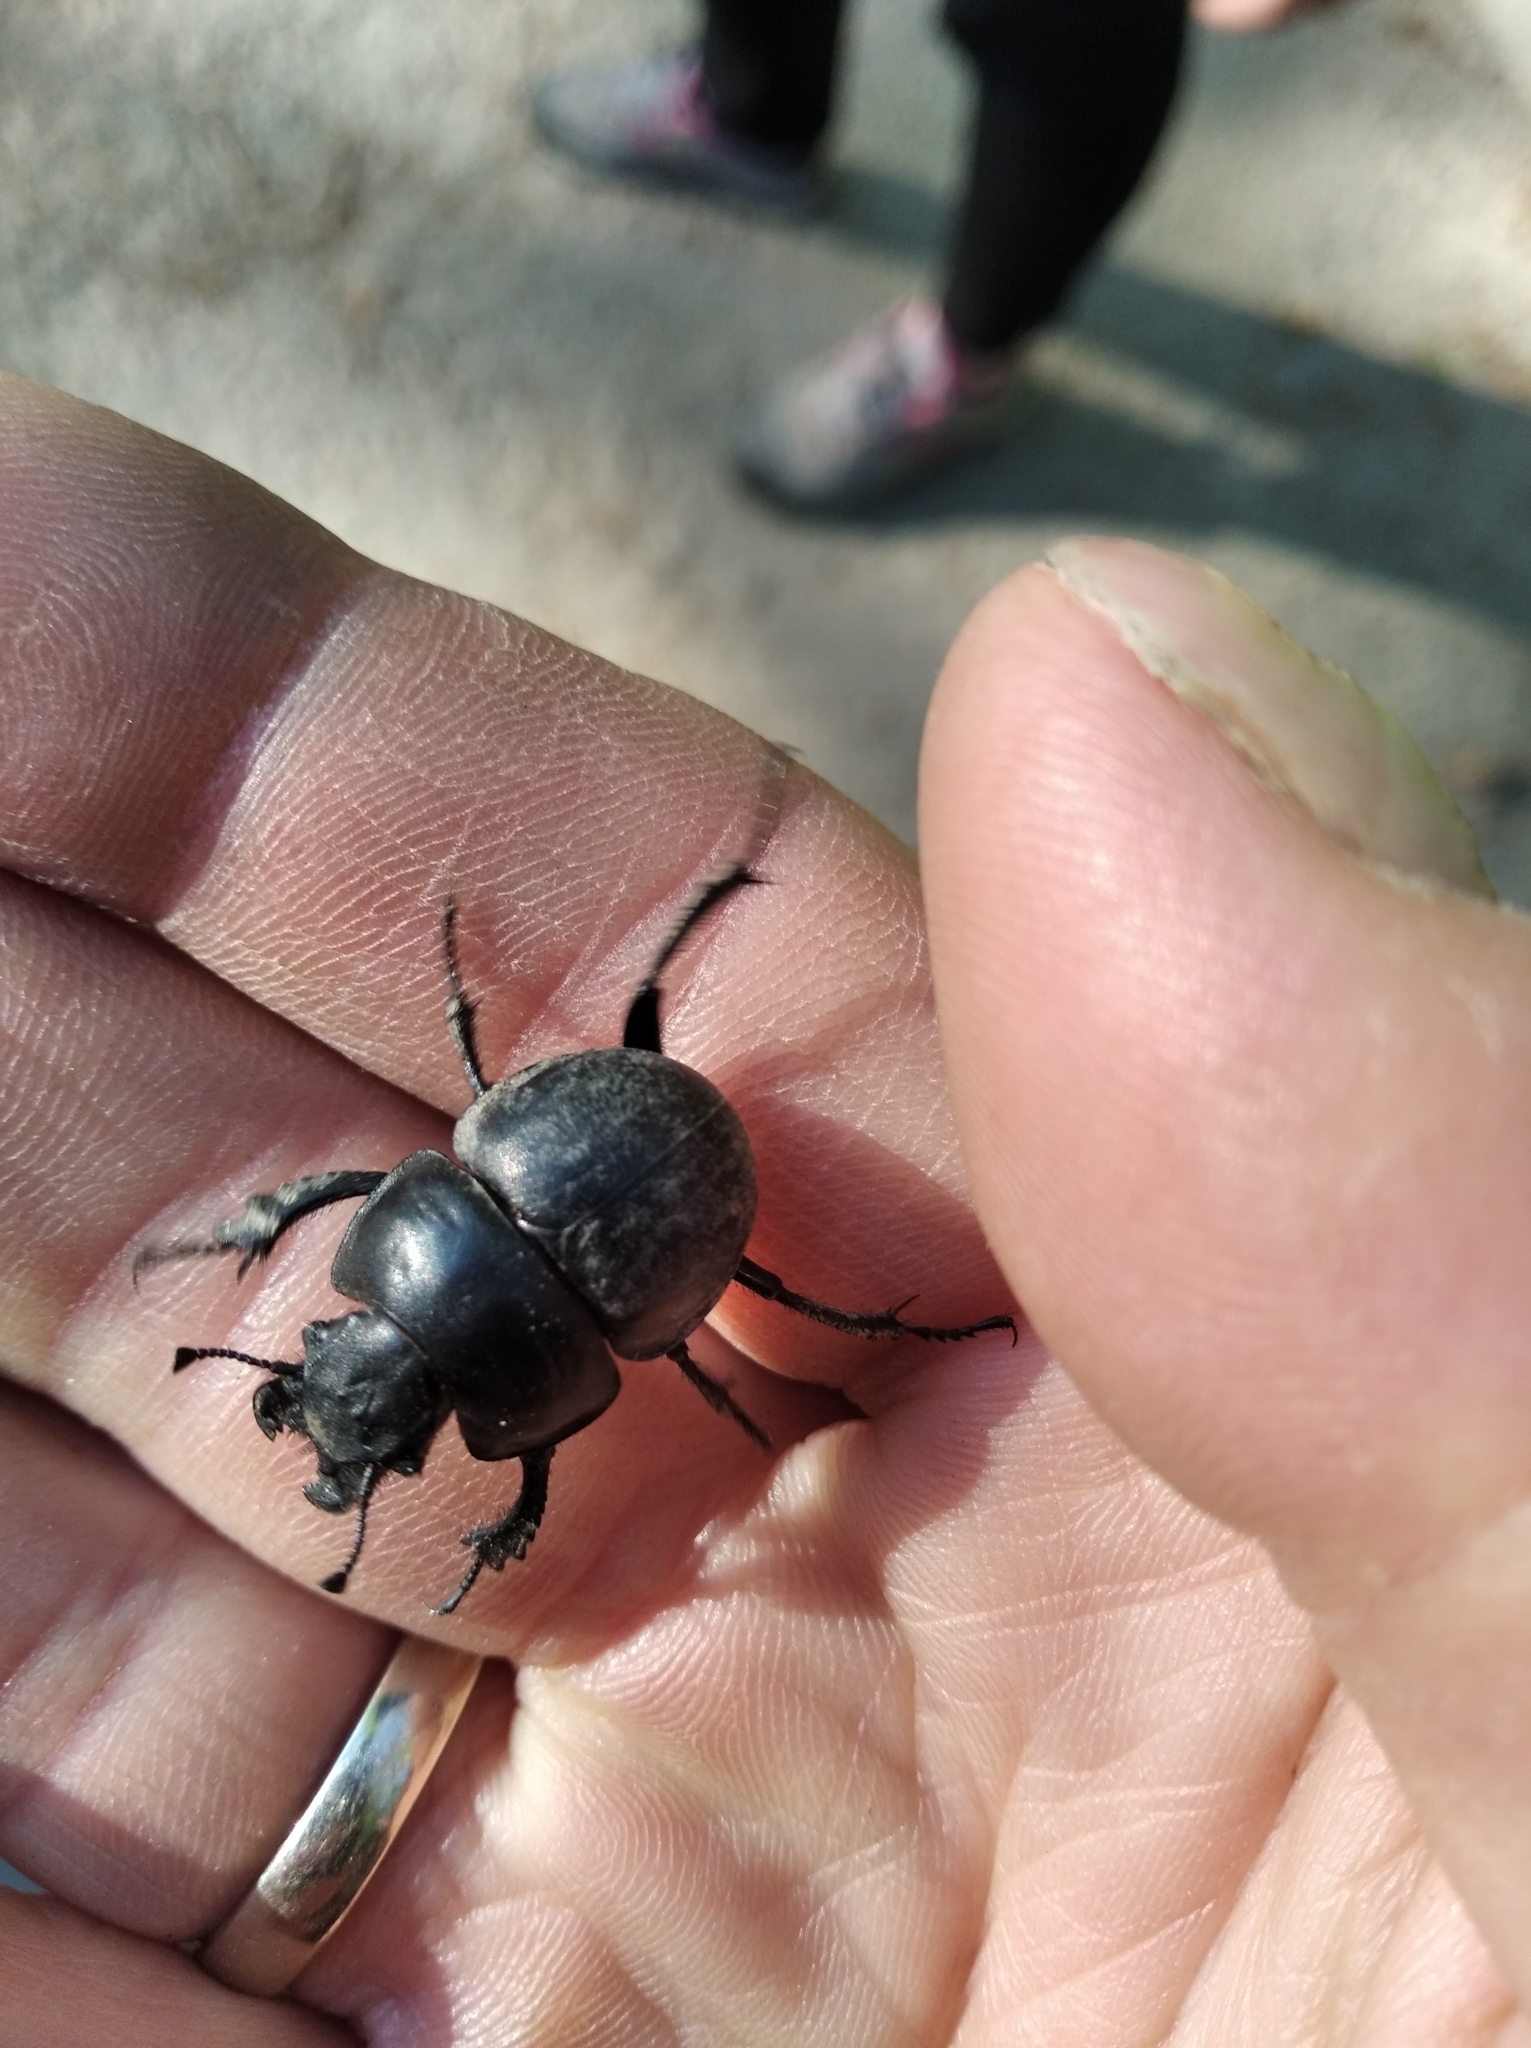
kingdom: Animalia
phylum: Arthropoda
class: Insecta
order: Coleoptera
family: Geotrupidae
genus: Lethrus
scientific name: Lethrus apterus
